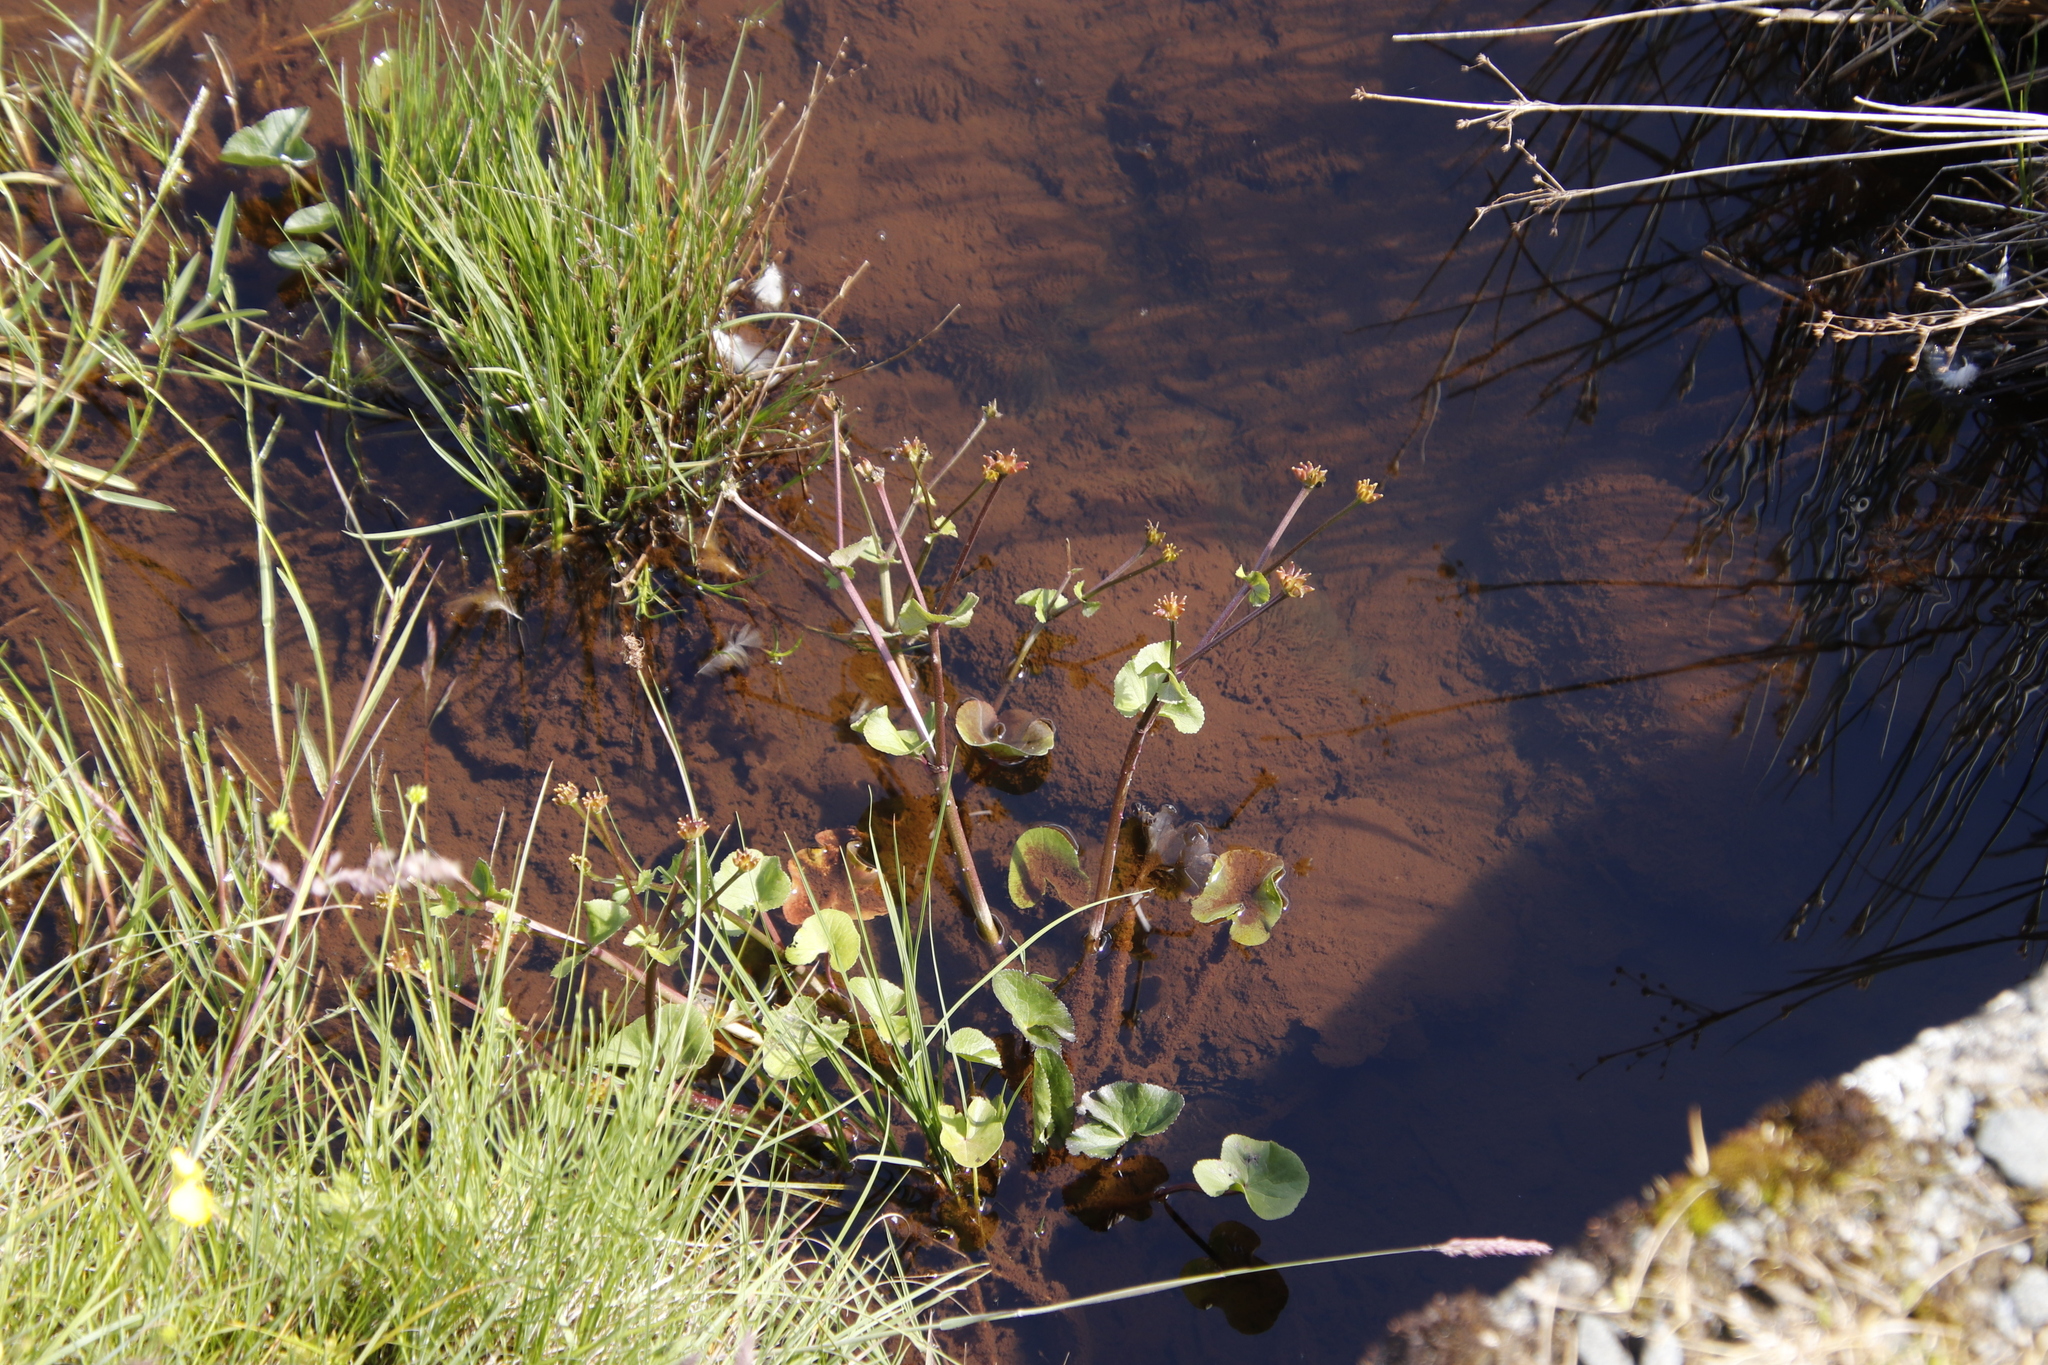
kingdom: Plantae
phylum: Tracheophyta
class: Magnoliopsida
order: Ranunculales
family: Ranunculaceae
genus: Caltha
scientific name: Caltha palustris
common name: Marsh marigold
